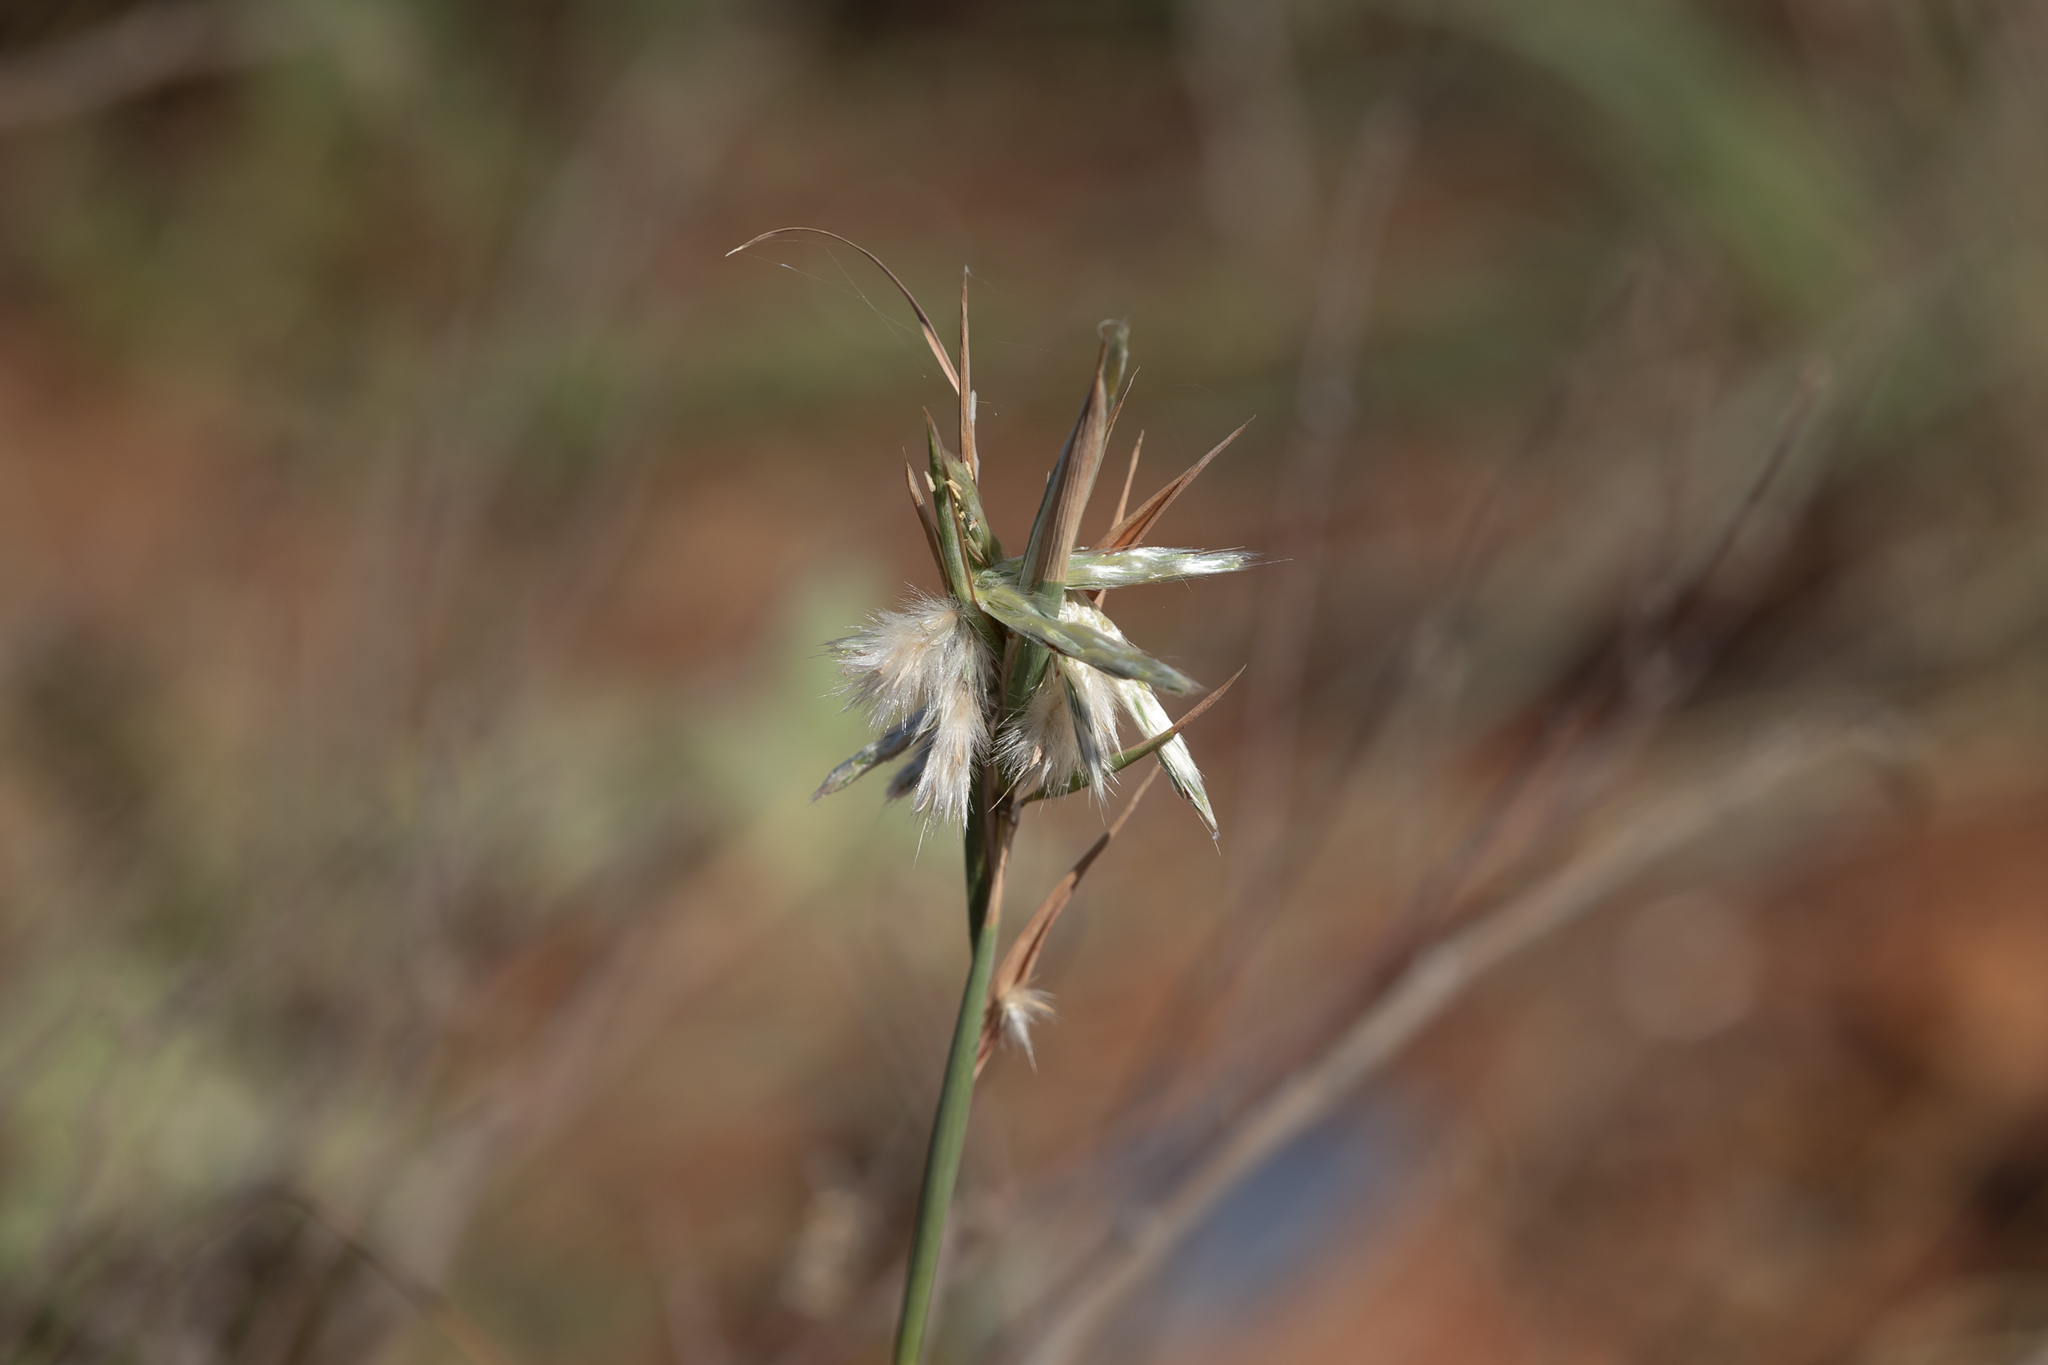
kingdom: Plantae
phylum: Tracheophyta
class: Liliopsida
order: Poales
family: Poaceae
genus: Cymbopogon
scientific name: Cymbopogon refractus
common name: Barbwire grass
